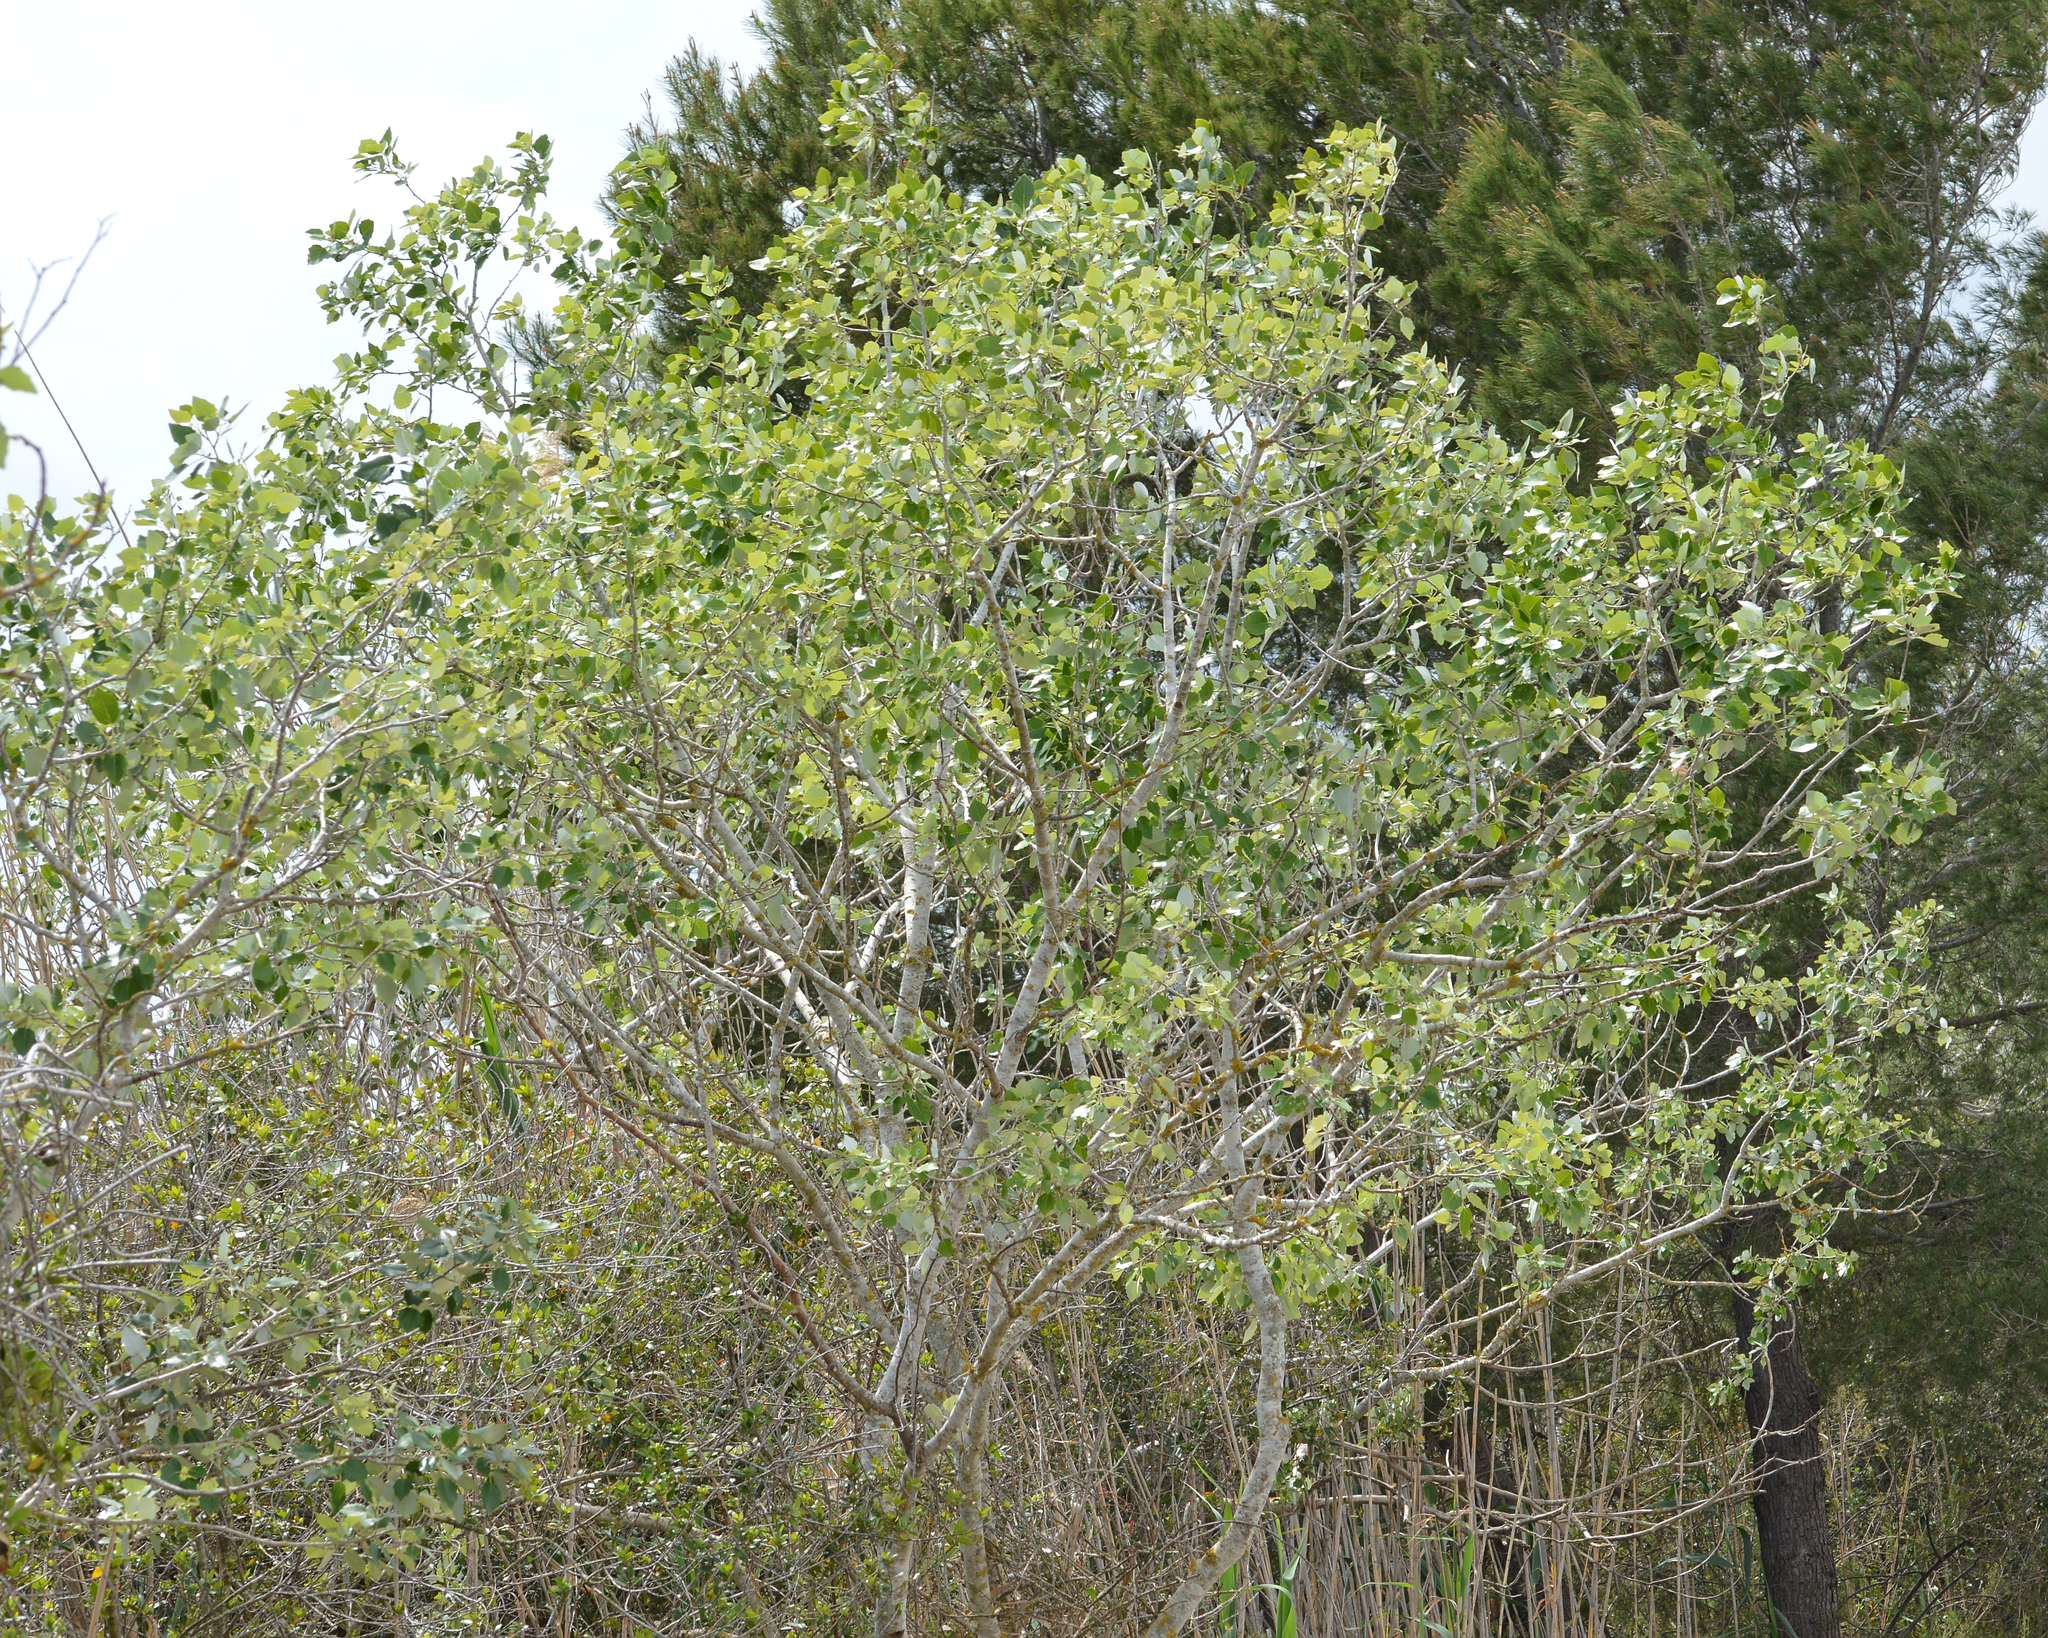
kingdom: Plantae
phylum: Tracheophyta
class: Magnoliopsida
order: Malpighiales
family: Salicaceae
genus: Populus
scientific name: Populus alba
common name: White poplar
